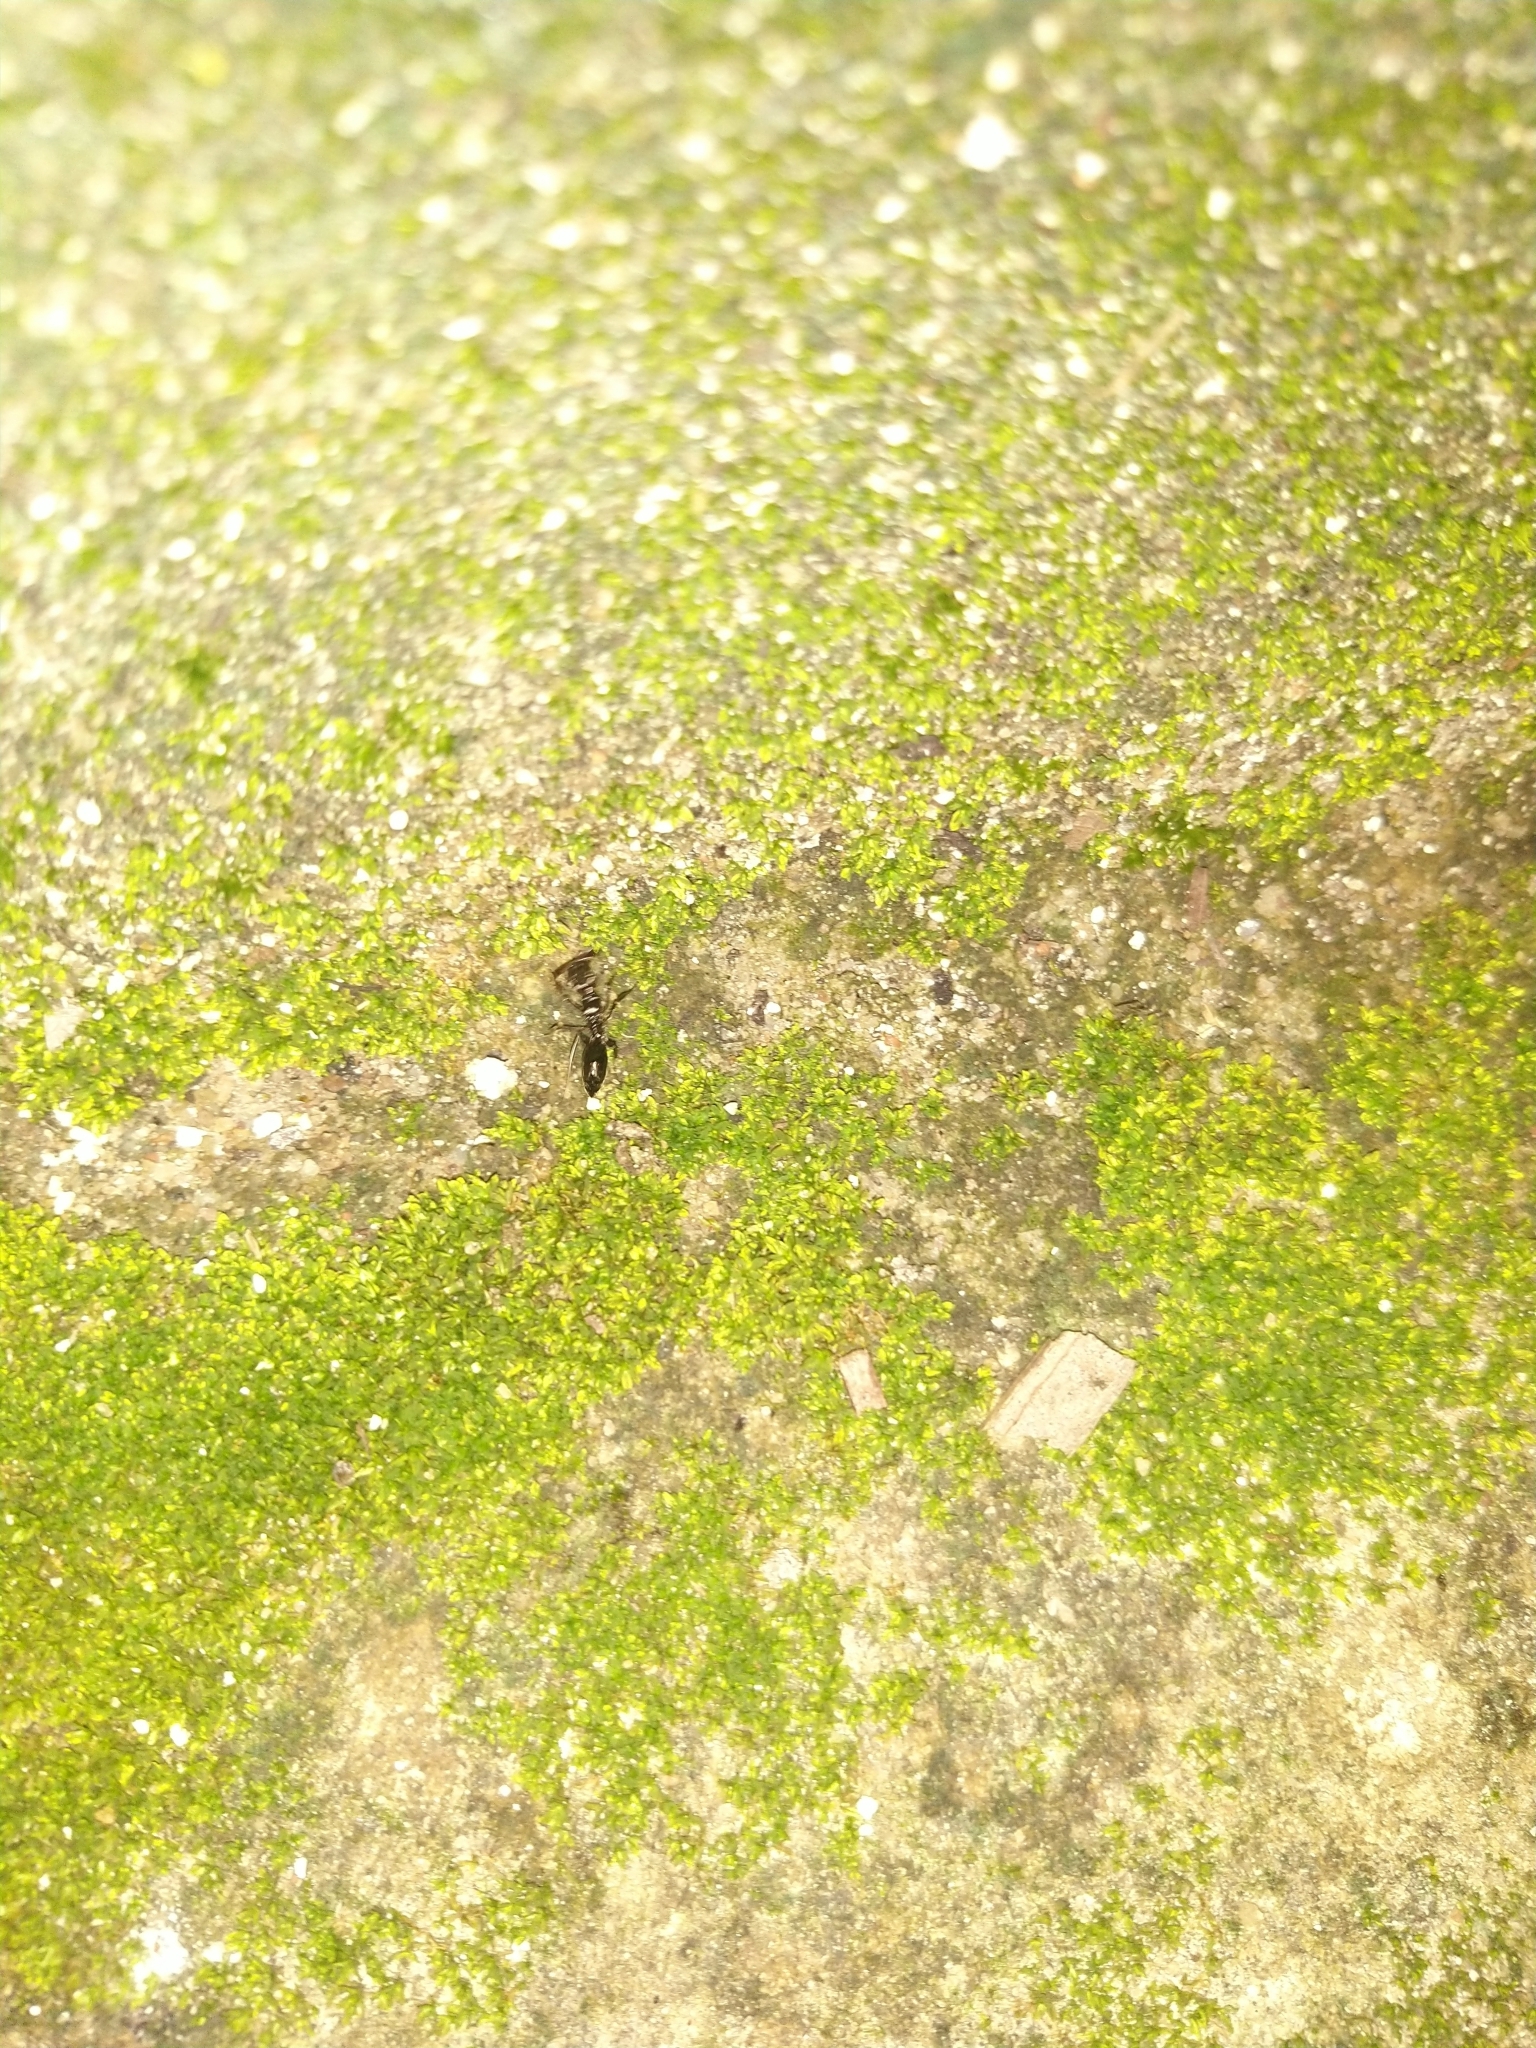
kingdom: Animalia
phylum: Arthropoda
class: Insecta
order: Hymenoptera
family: Formicidae
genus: Odontomachus
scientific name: Odontomachus simillimus
